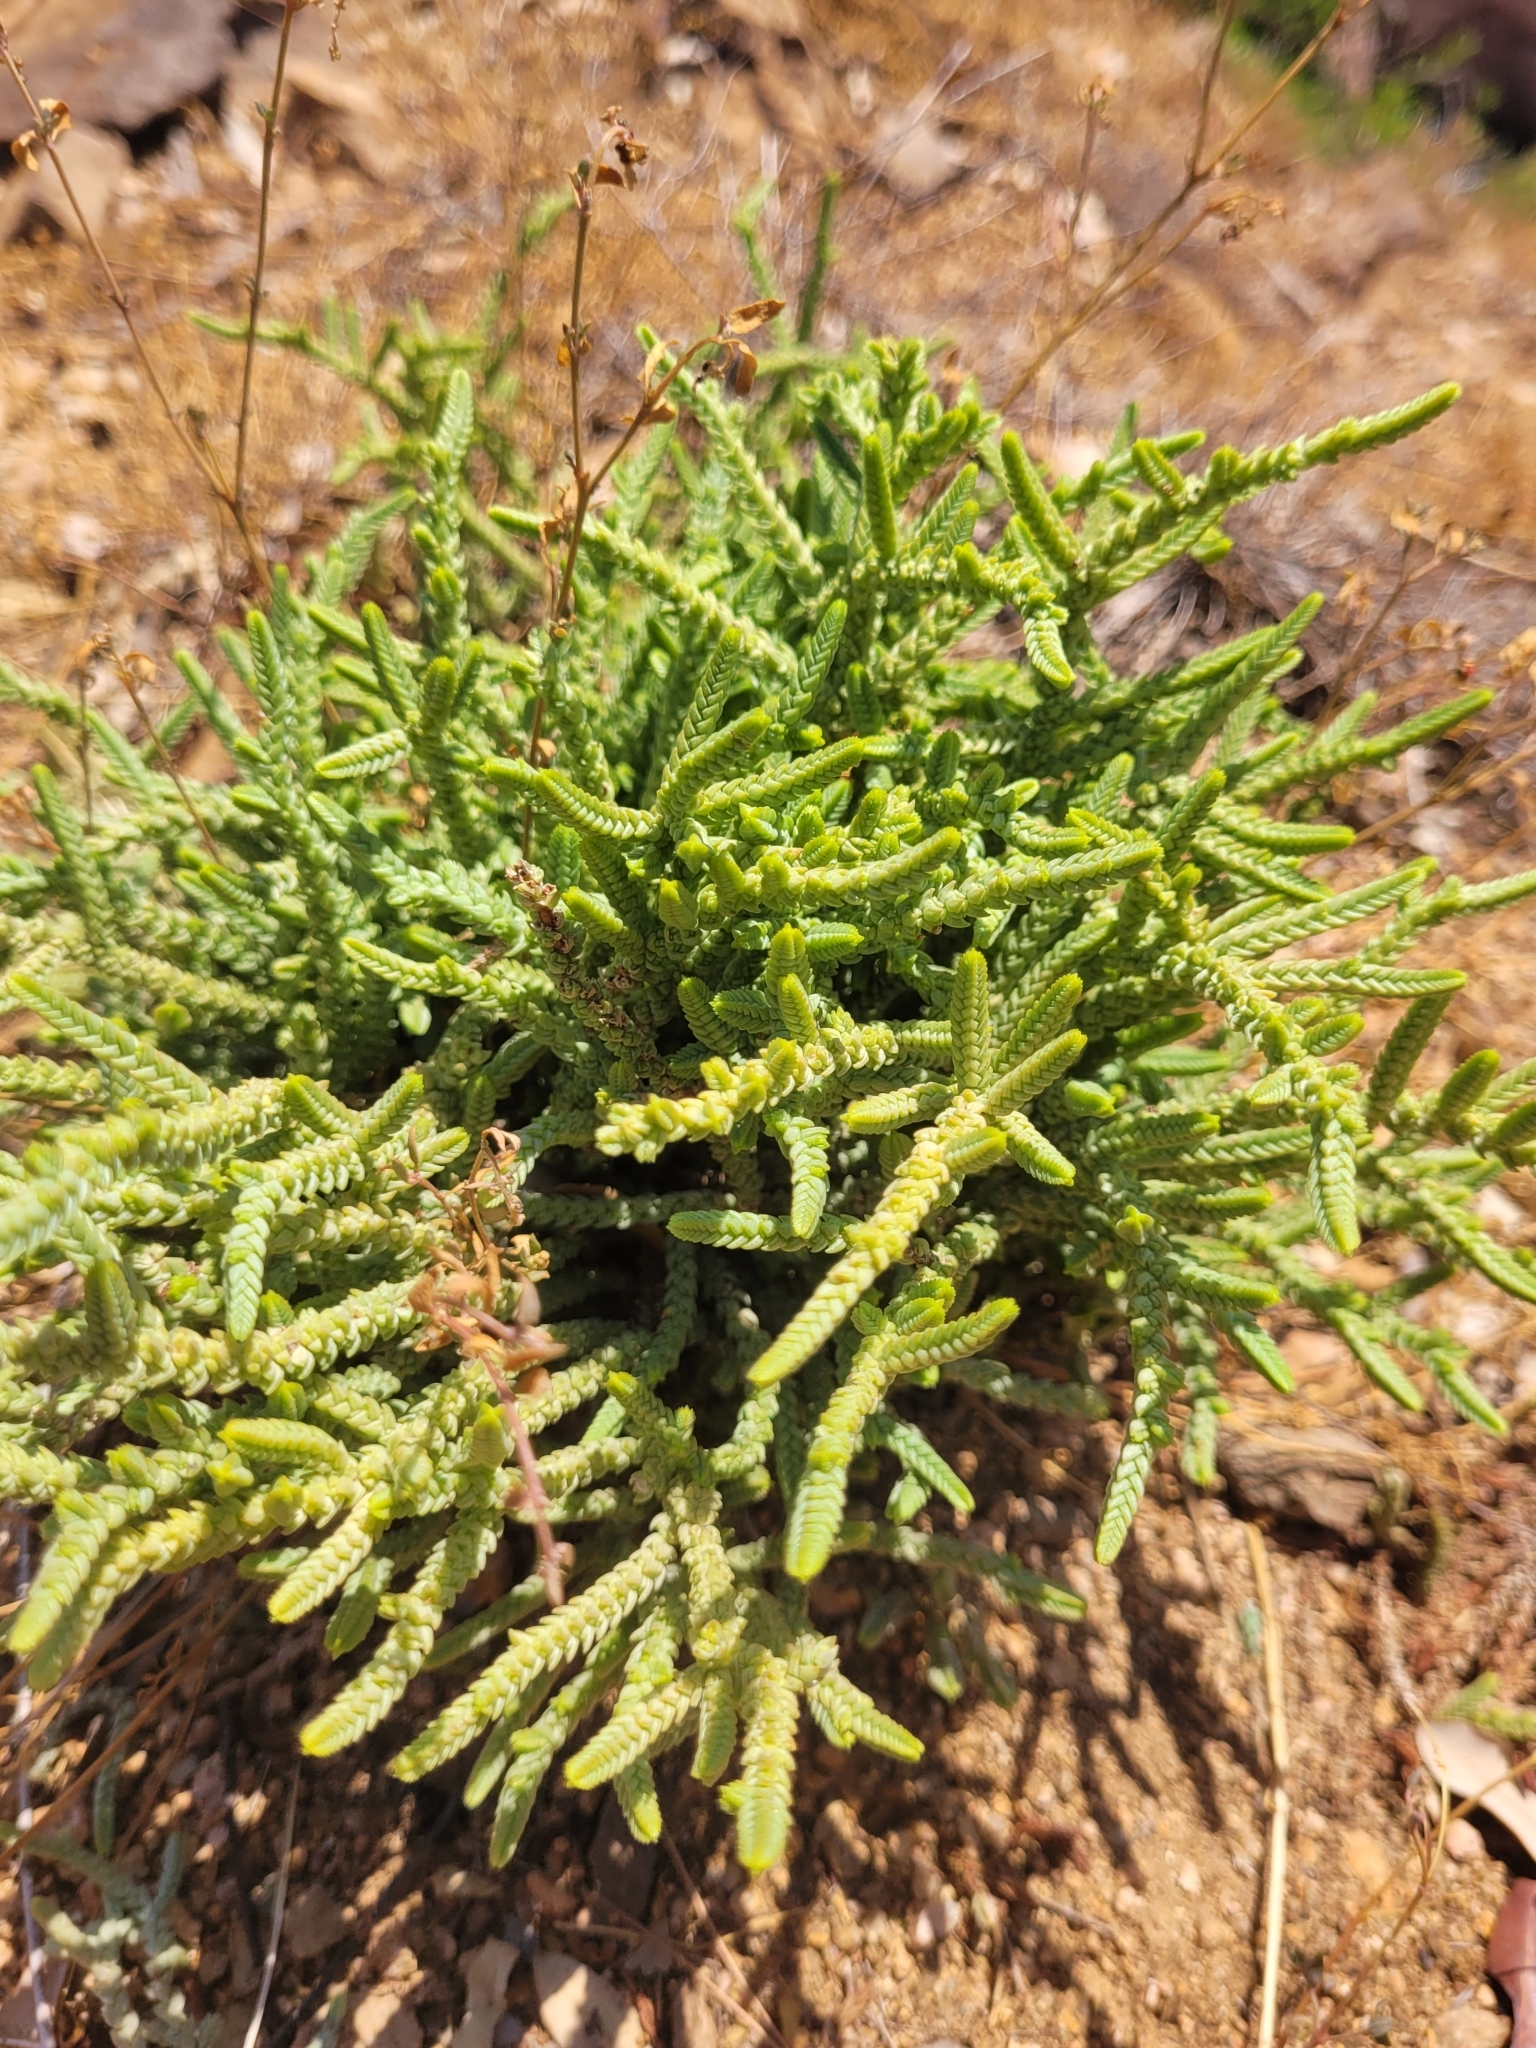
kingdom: Plantae
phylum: Tracheophyta
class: Magnoliopsida
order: Saxifragales
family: Crassulaceae
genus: Crassula
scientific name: Crassula muscosa
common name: Toy-cypress
